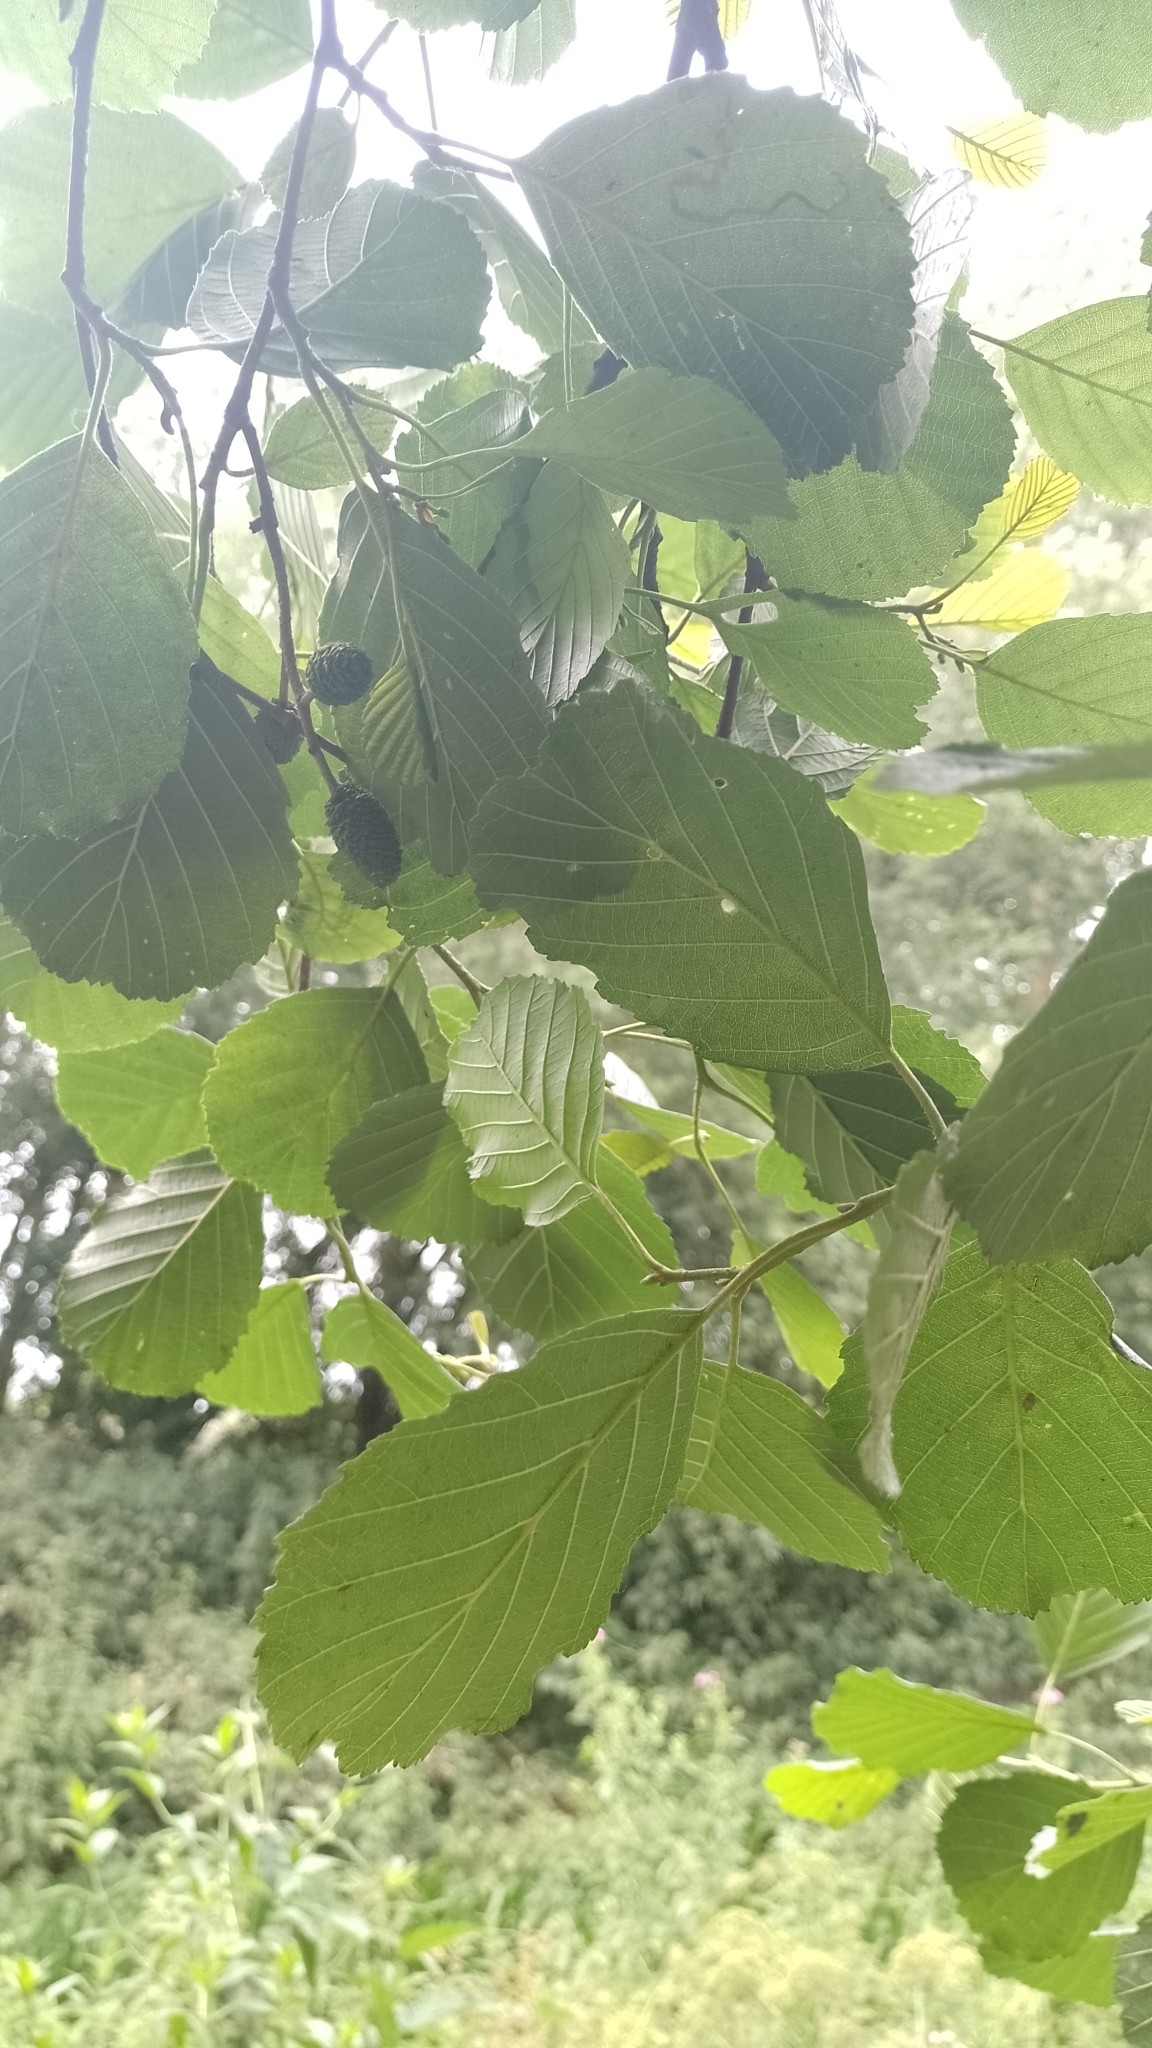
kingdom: Plantae
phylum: Tracheophyta
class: Magnoliopsida
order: Fagales
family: Betulaceae
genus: Alnus
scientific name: Alnus glutinosa
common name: Black alder
